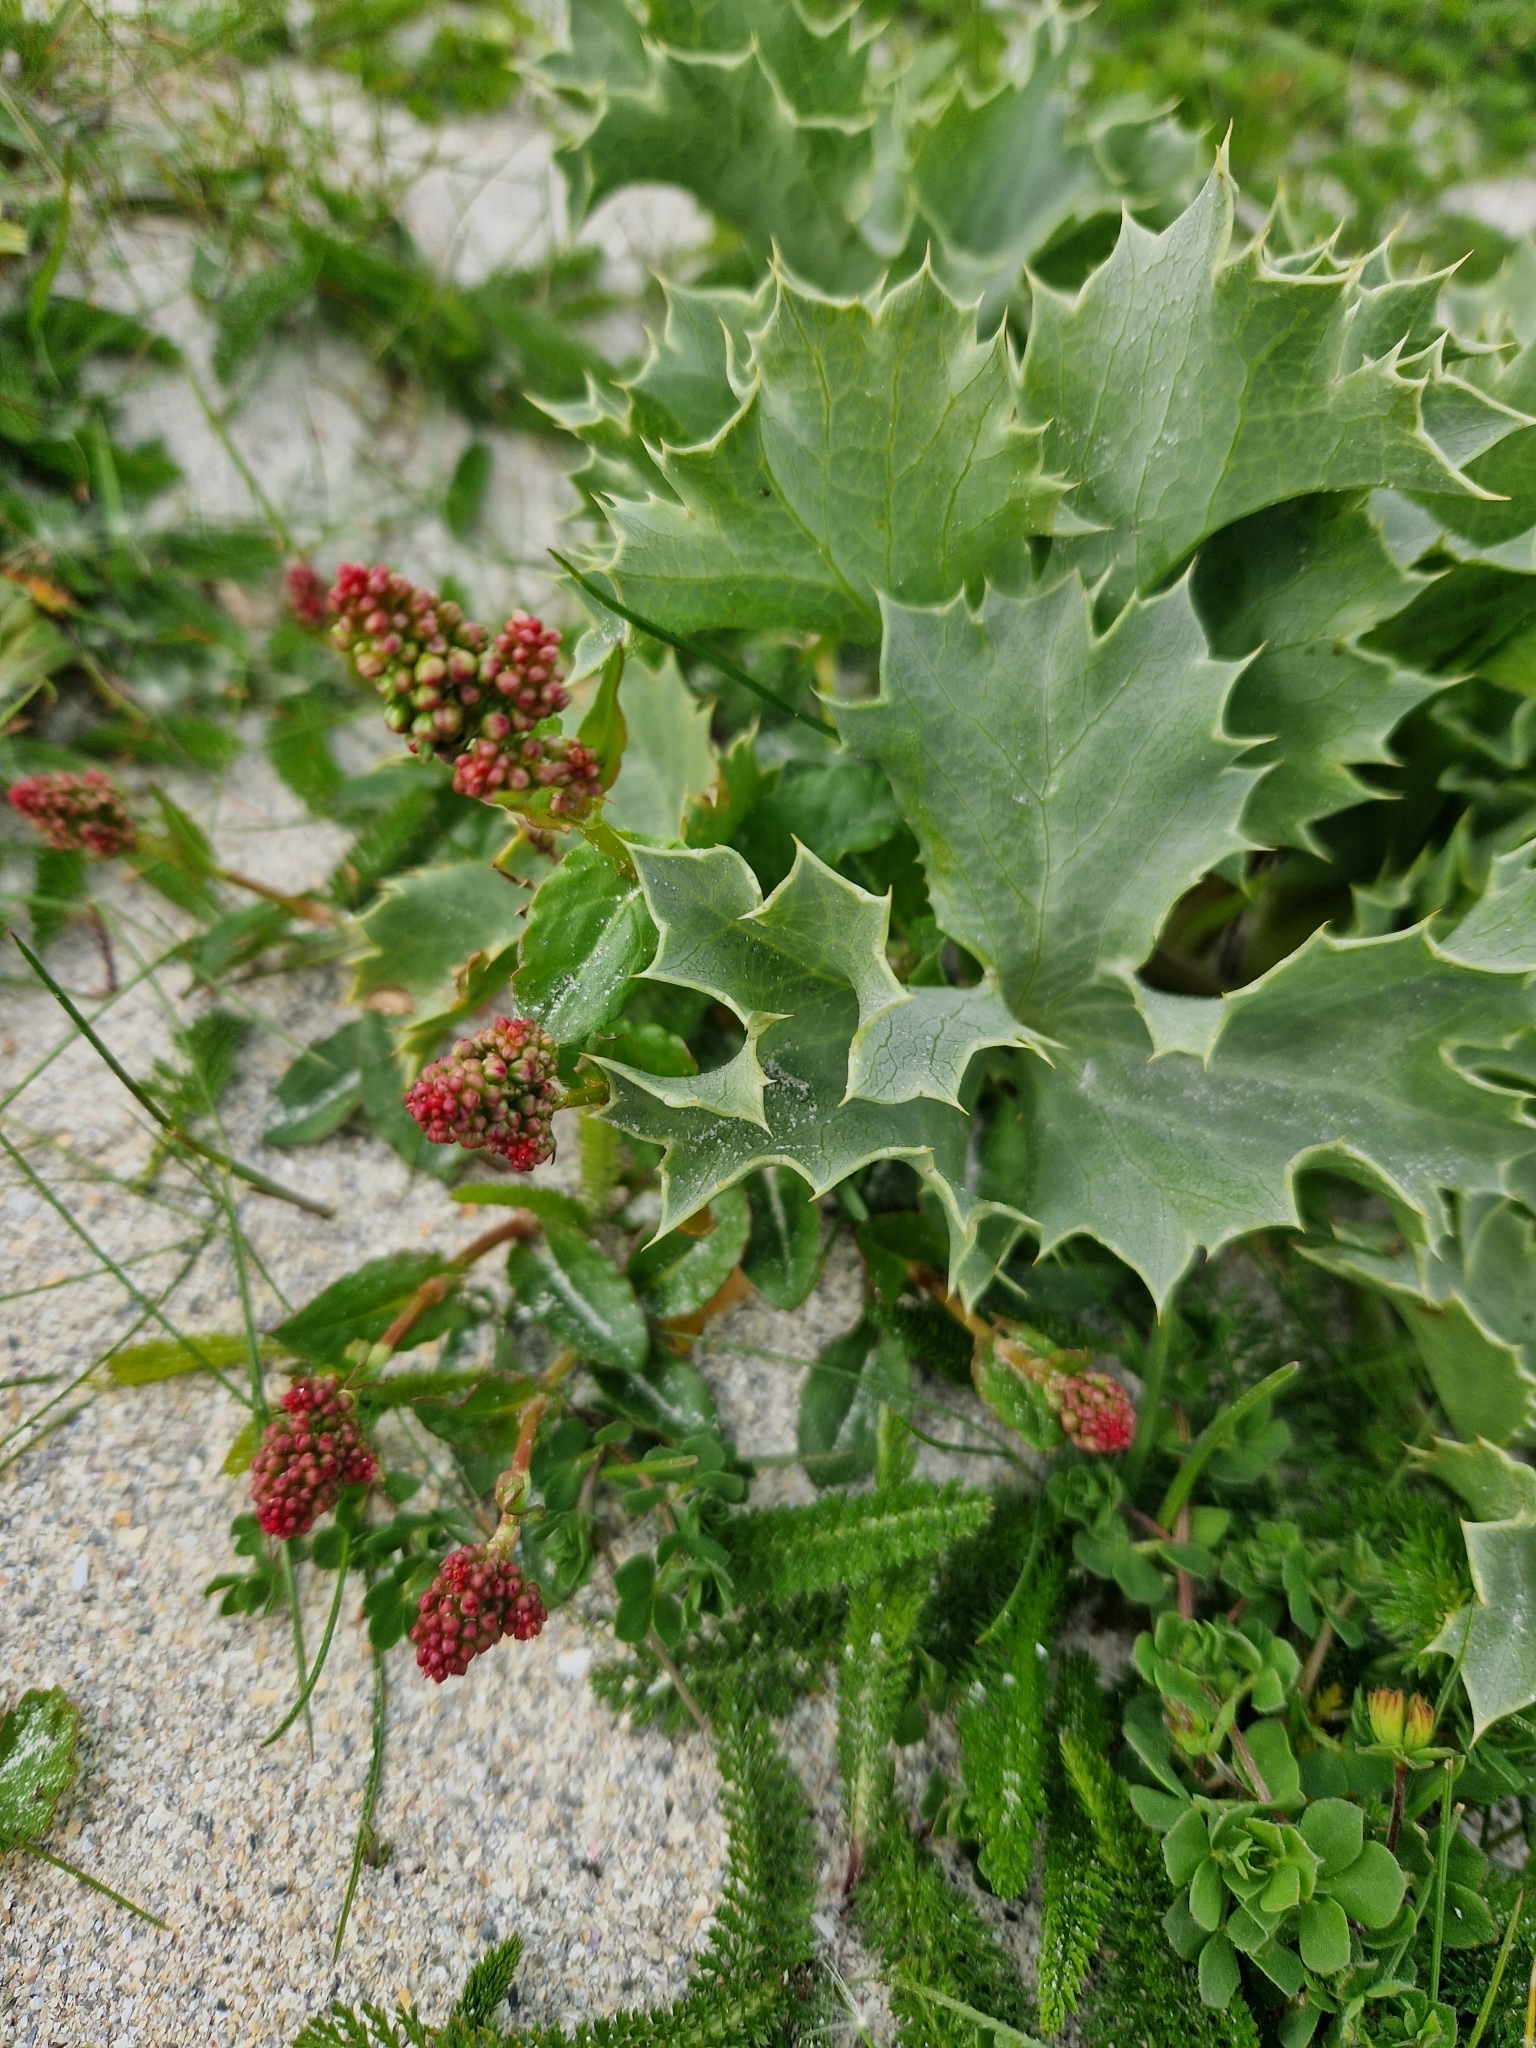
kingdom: Plantae
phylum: Tracheophyta
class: Magnoliopsida
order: Apiales
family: Apiaceae
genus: Eryngium
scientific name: Eryngium maritimum
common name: Sea-holly
